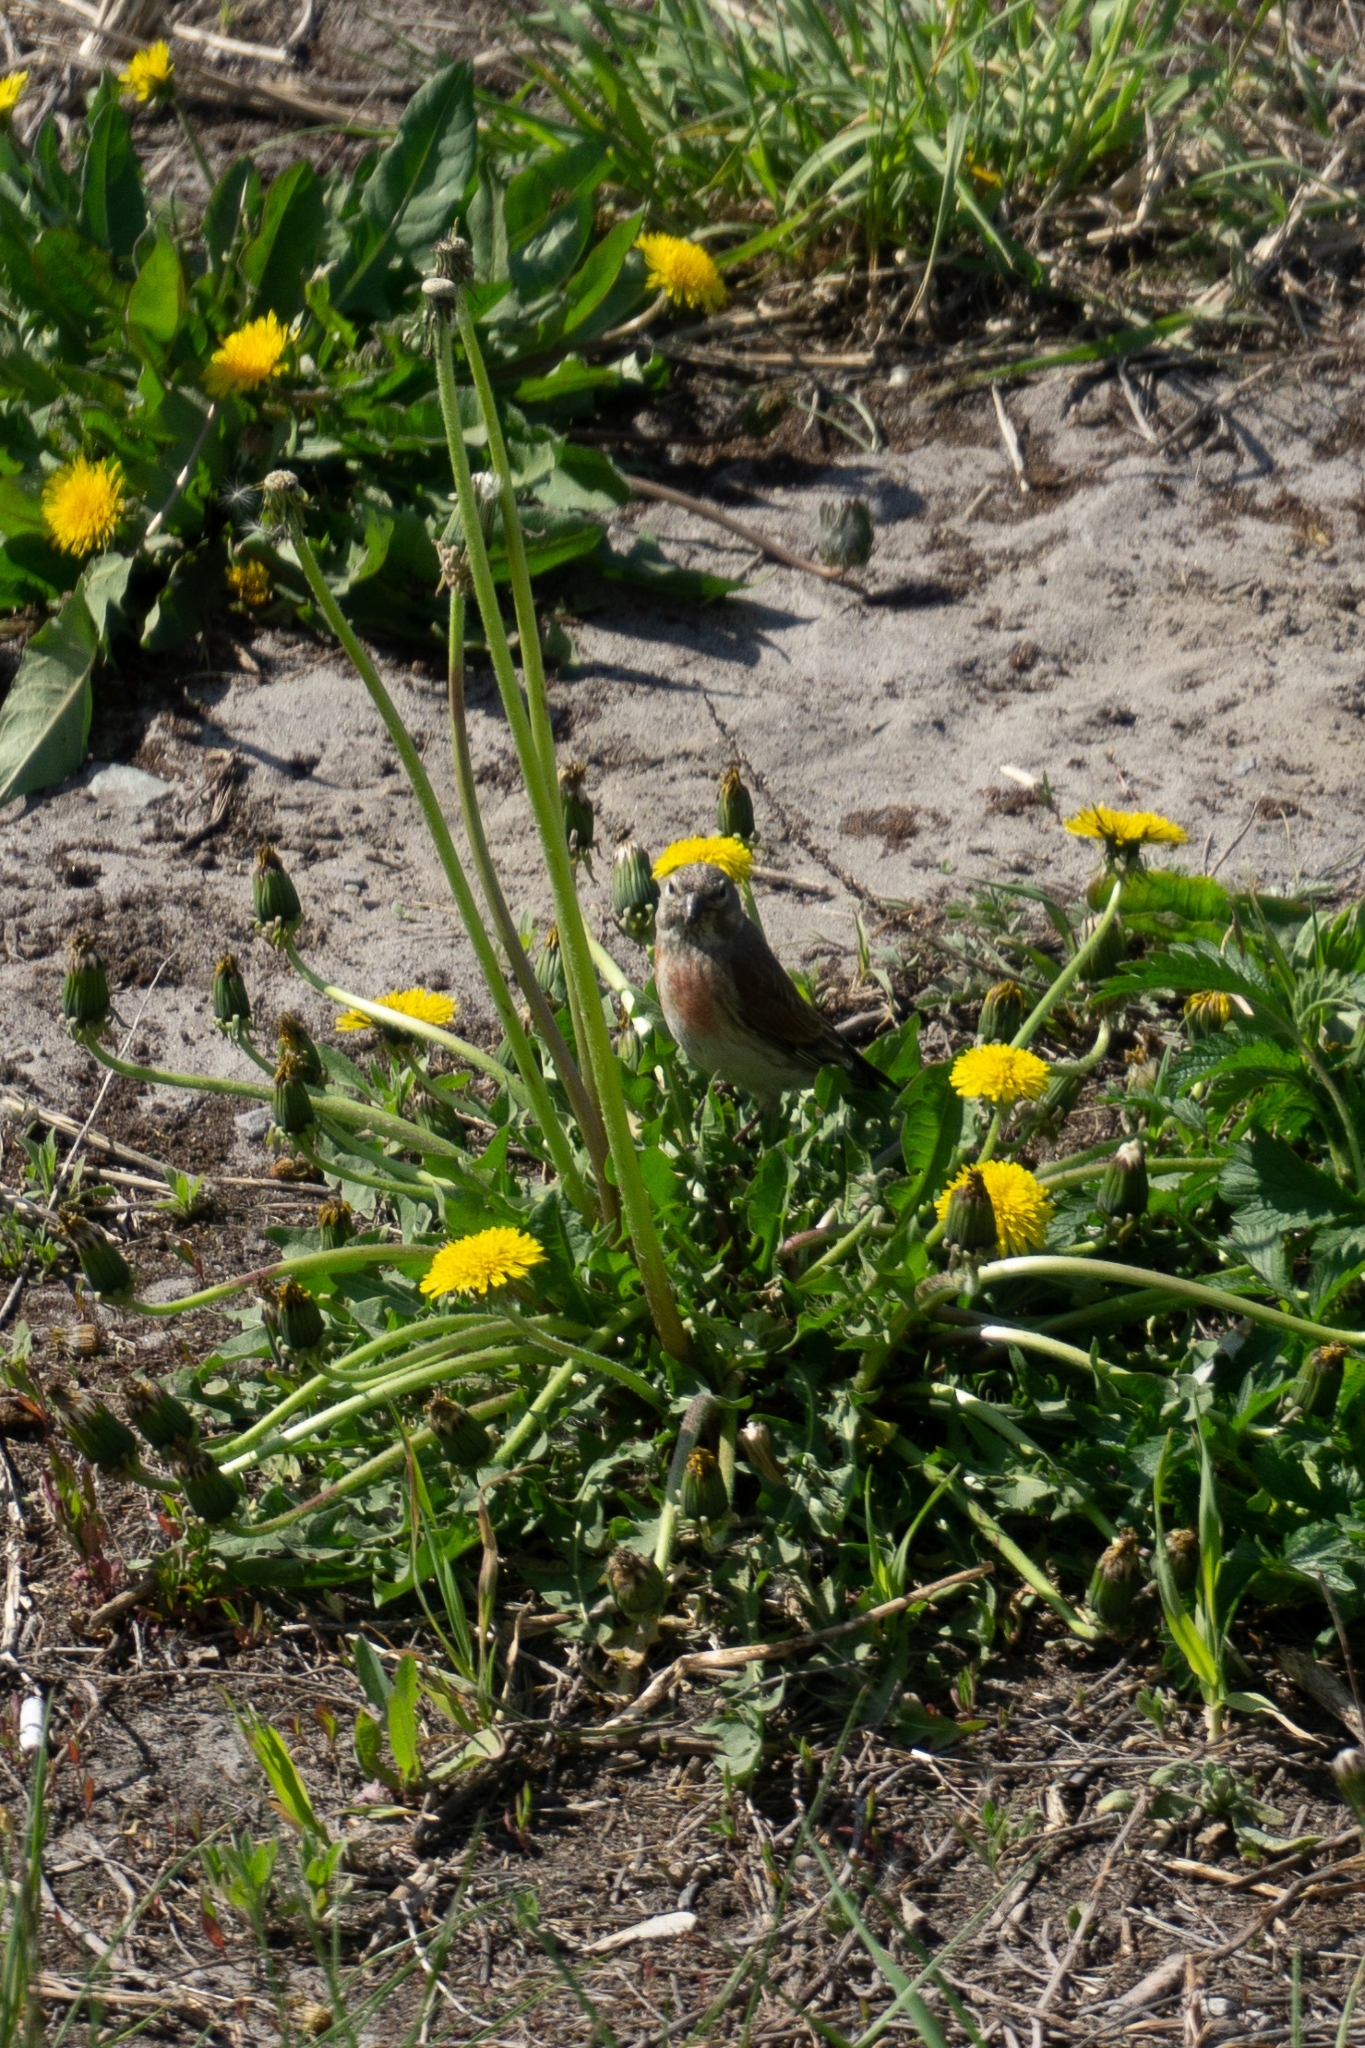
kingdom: Animalia
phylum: Chordata
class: Aves
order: Passeriformes
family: Fringillidae
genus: Linaria
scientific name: Linaria cannabina
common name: Common linnet
